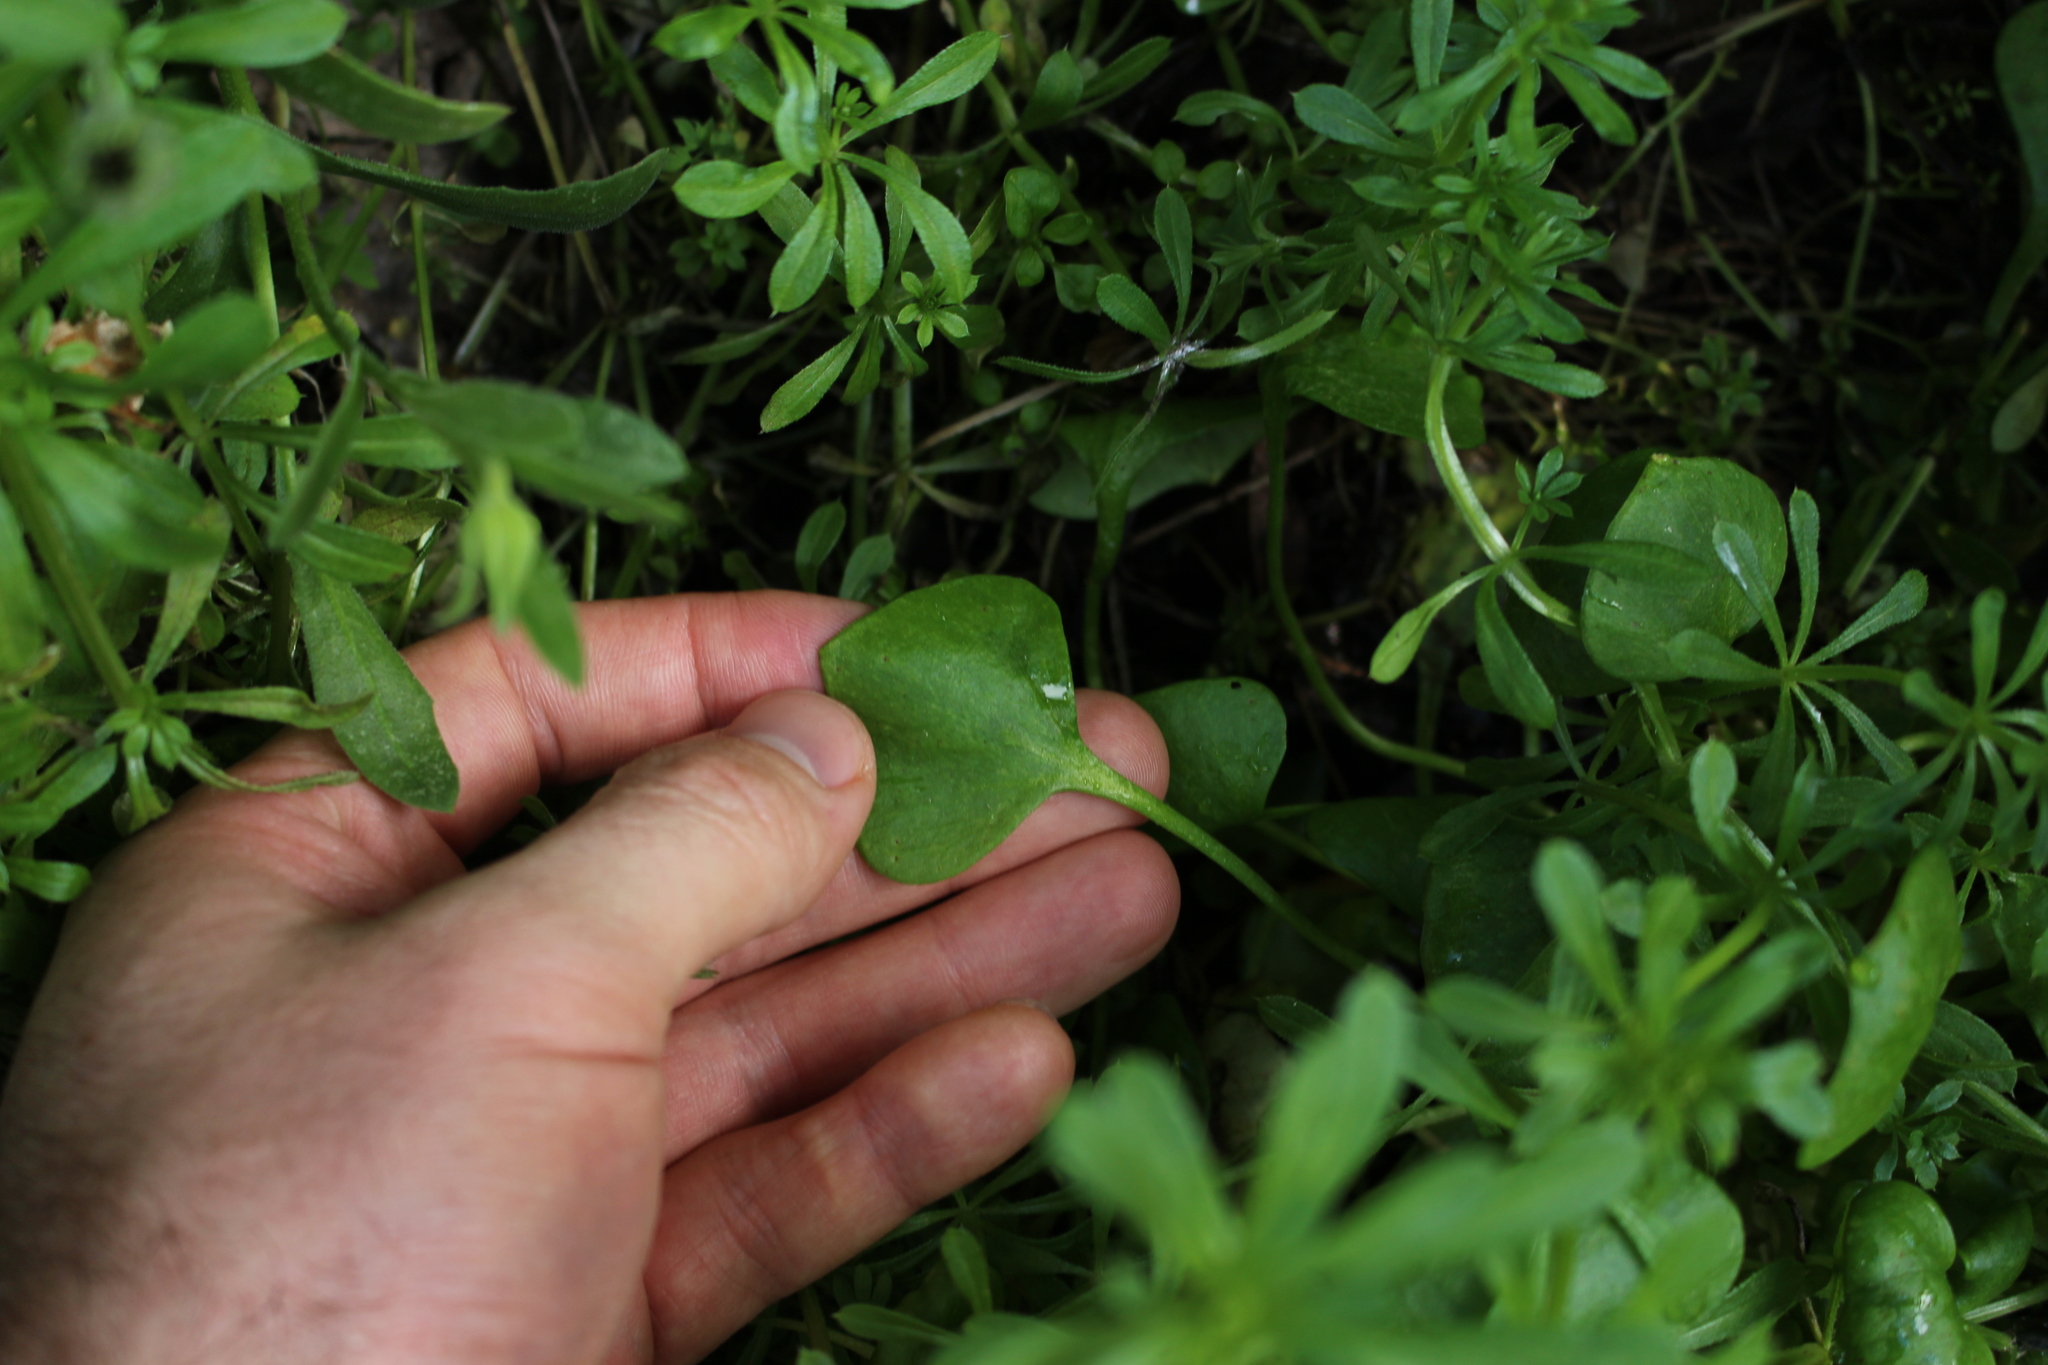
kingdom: Plantae
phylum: Tracheophyta
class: Magnoliopsida
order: Caryophyllales
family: Montiaceae
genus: Claytonia
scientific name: Claytonia perfoliata
